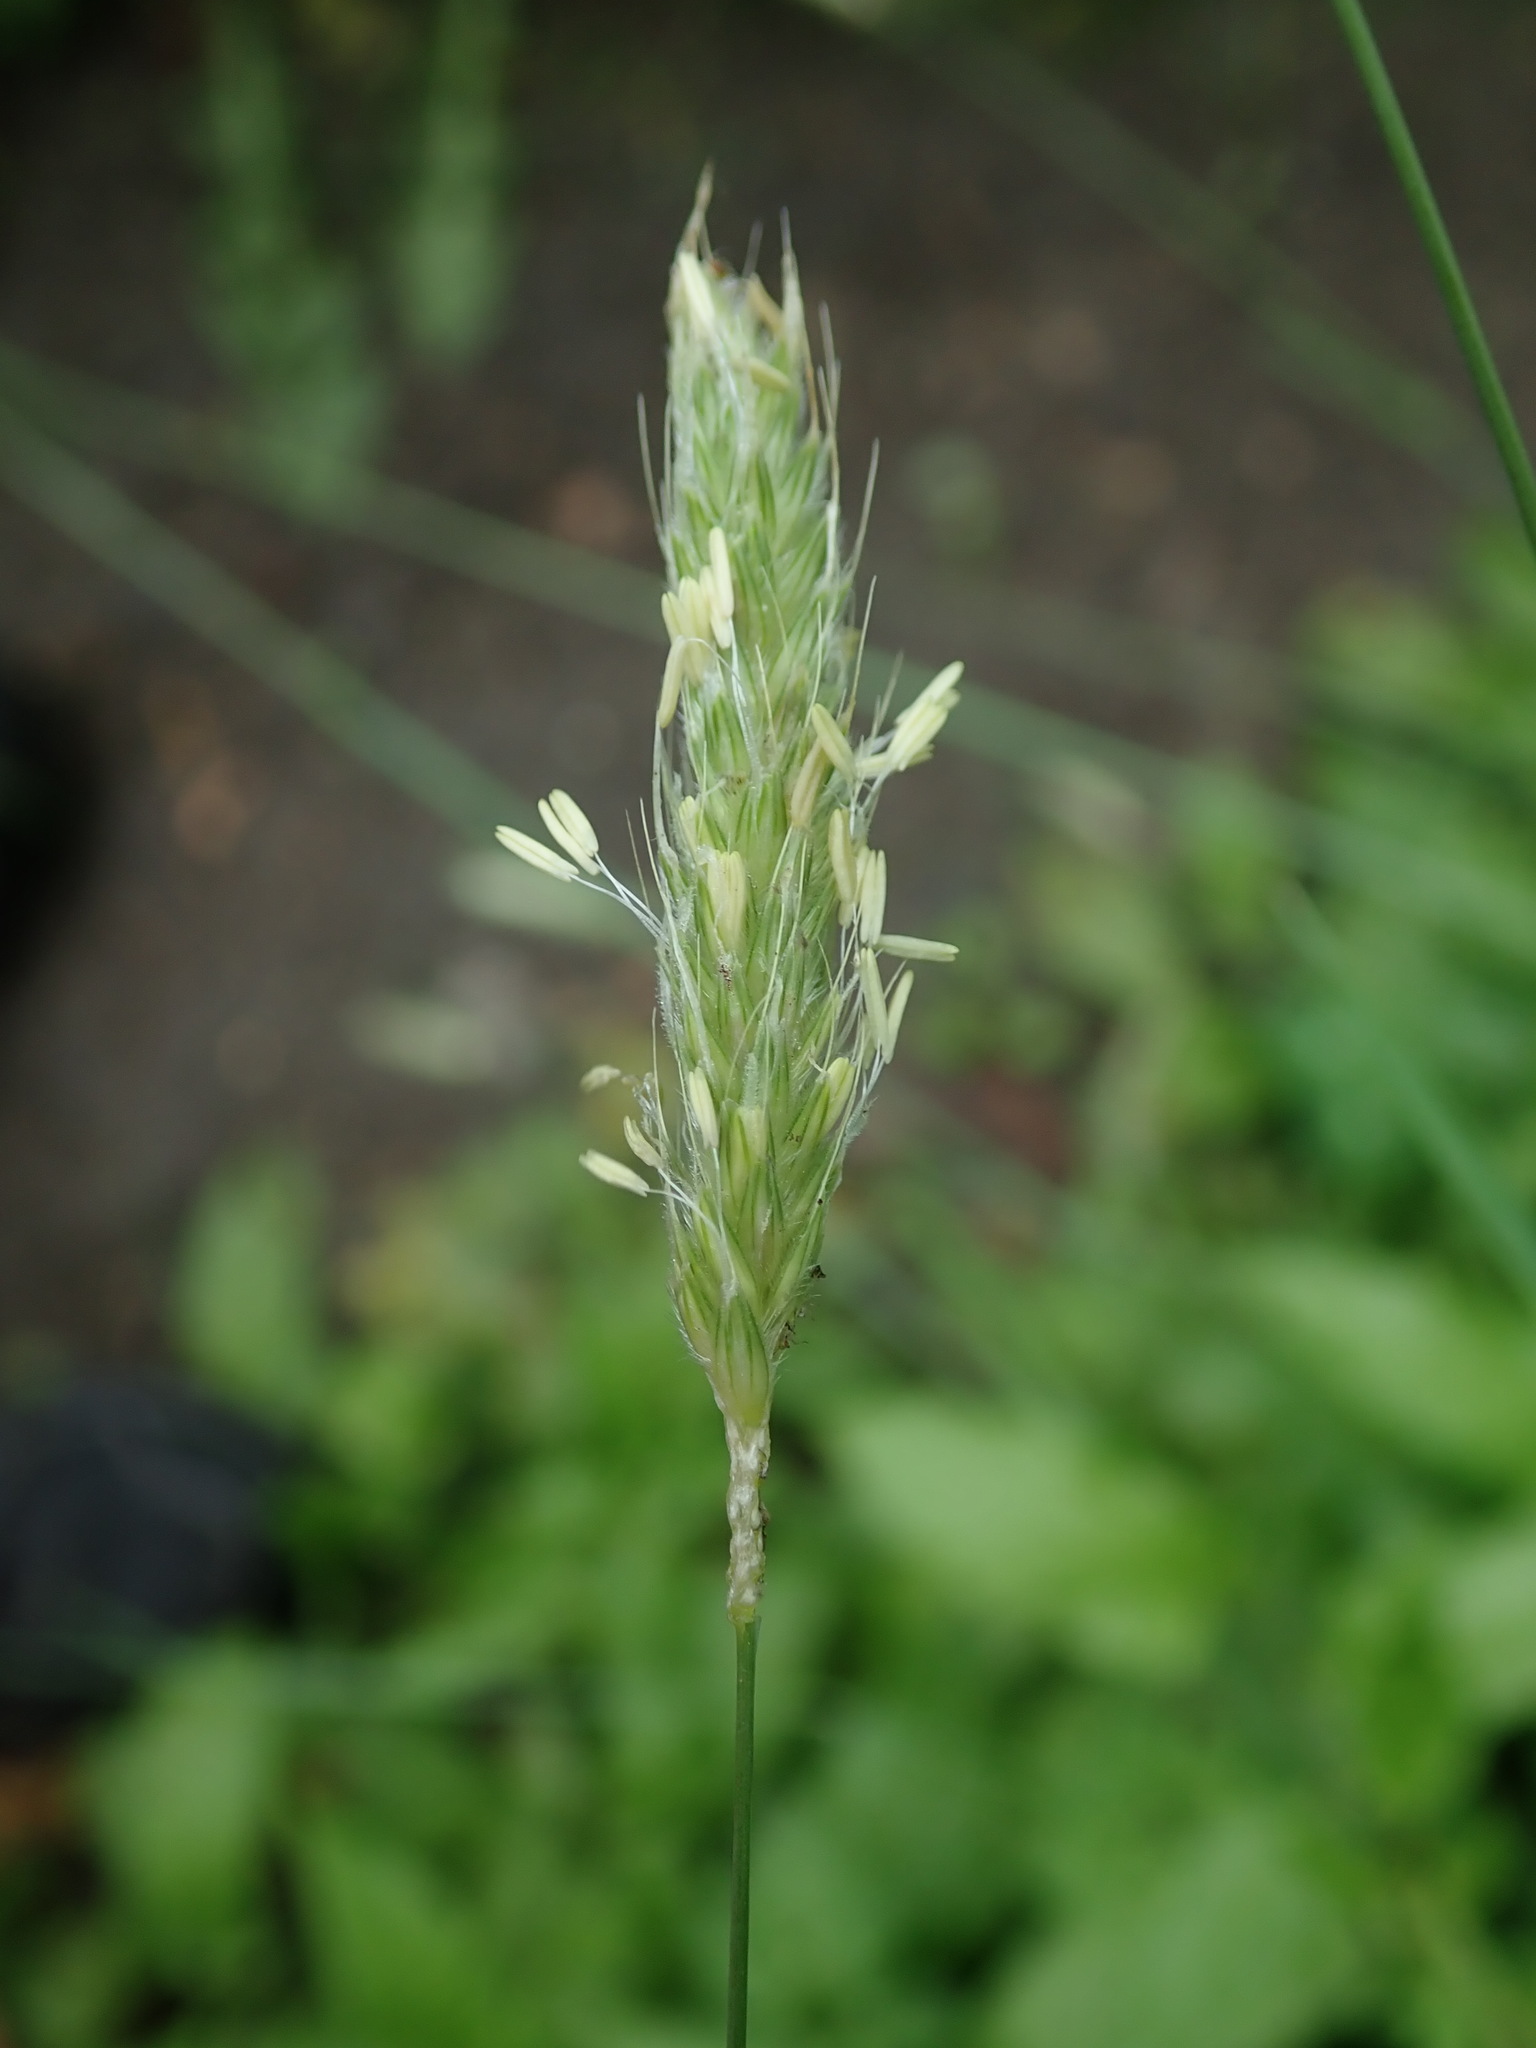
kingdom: Plantae
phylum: Tracheophyta
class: Liliopsida
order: Poales
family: Poaceae
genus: Alopecurus
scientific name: Alopecurus pratensis
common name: Meadow foxtail
